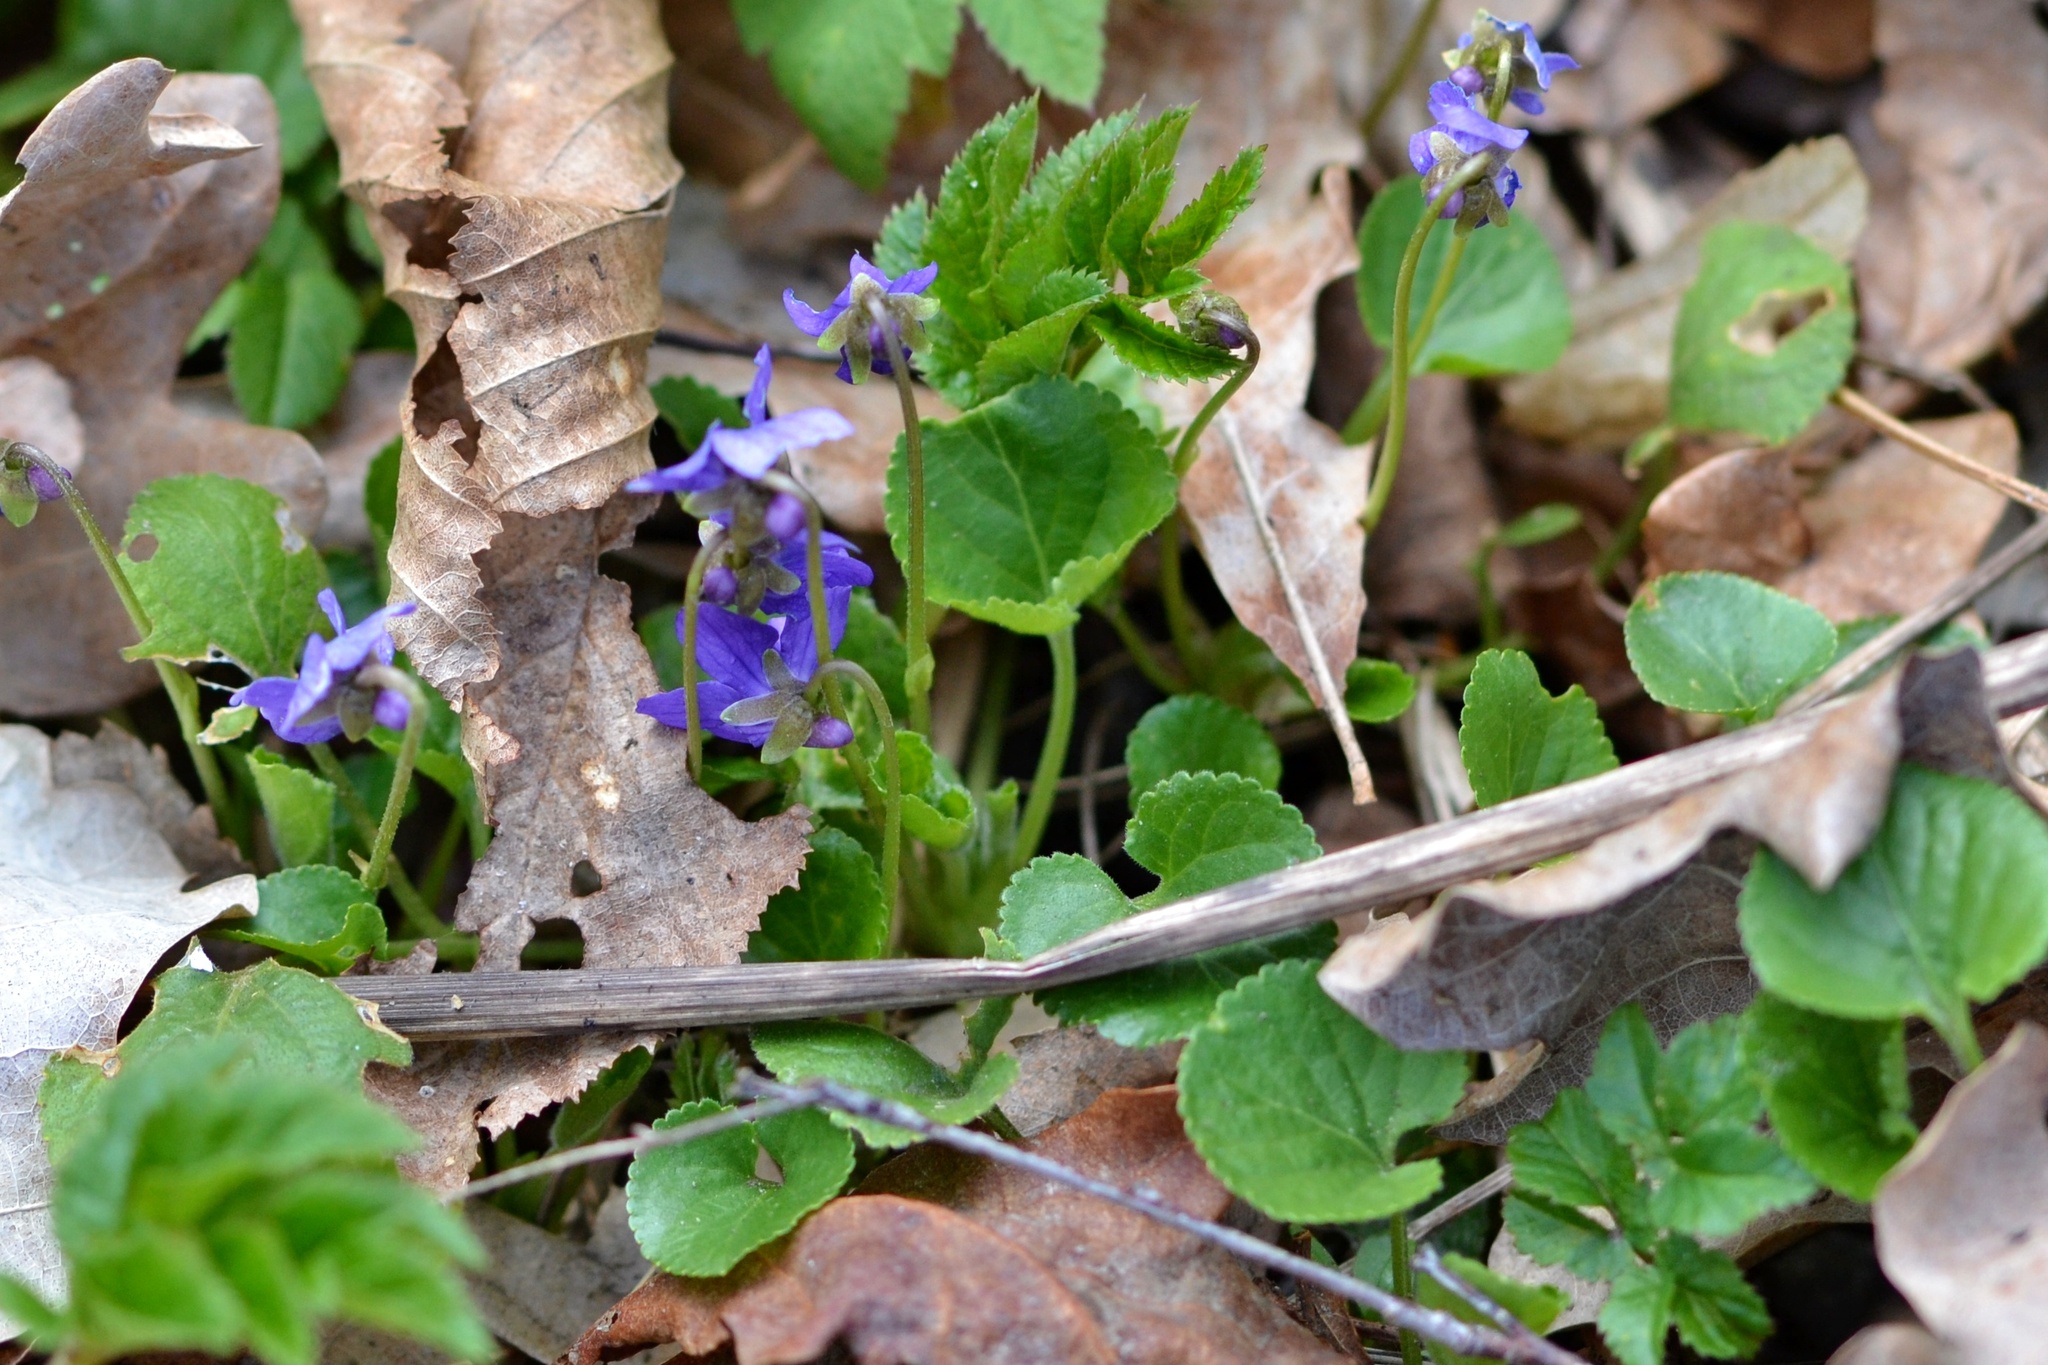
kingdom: Plantae
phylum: Tracheophyta
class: Magnoliopsida
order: Malpighiales
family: Violaceae
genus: Viola
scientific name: Viola odorata
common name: Sweet violet
